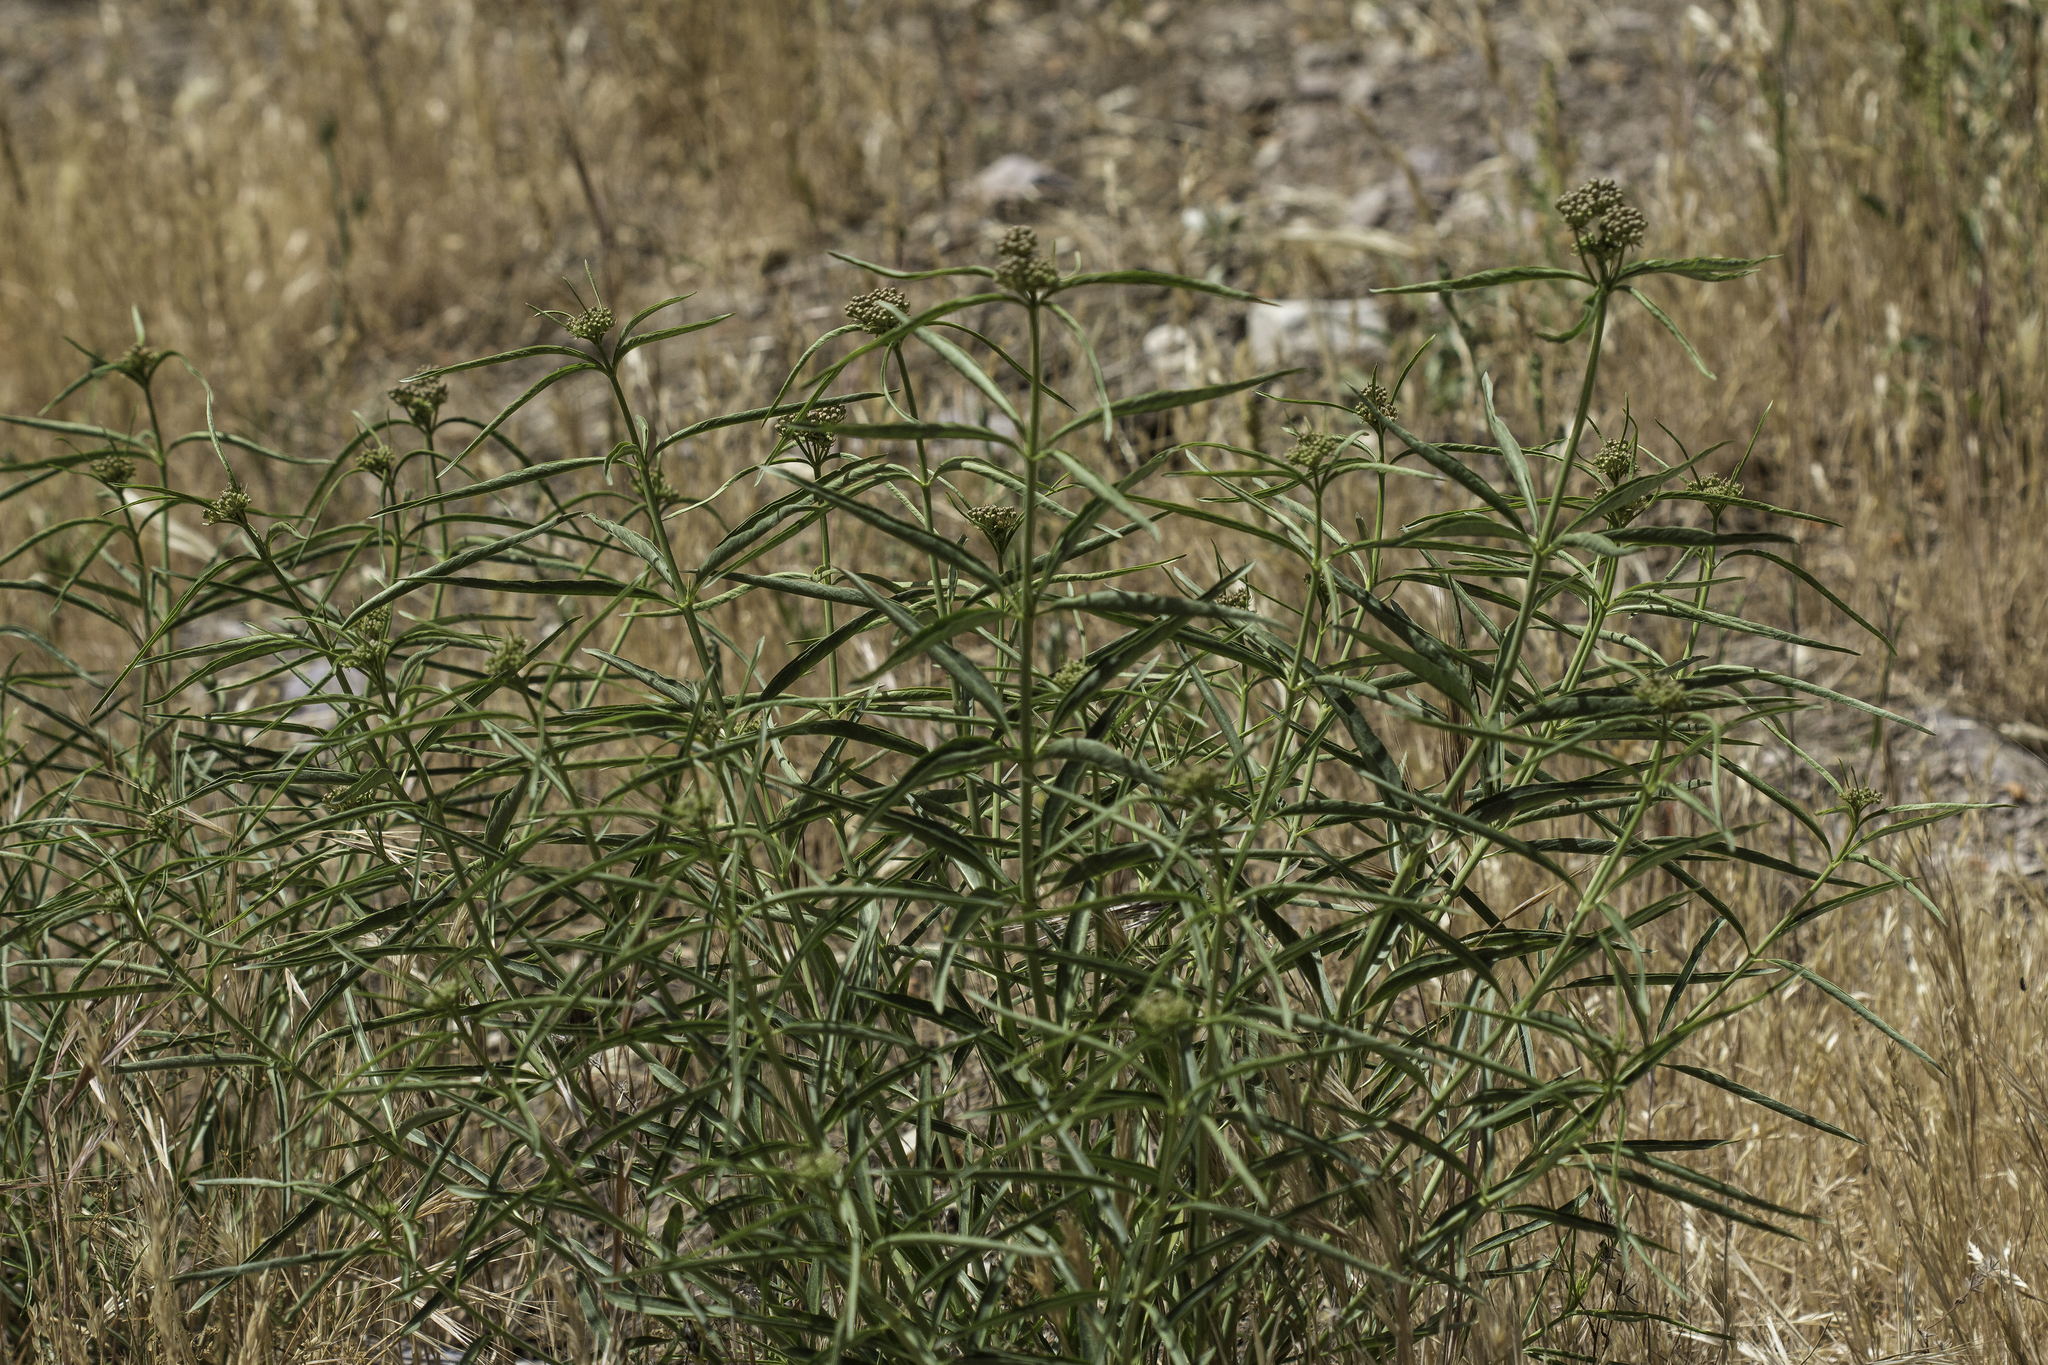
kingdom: Plantae
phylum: Tracheophyta
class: Magnoliopsida
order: Gentianales
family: Apocynaceae
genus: Asclepias
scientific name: Asclepias fascicularis
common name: Mexican milkweed
